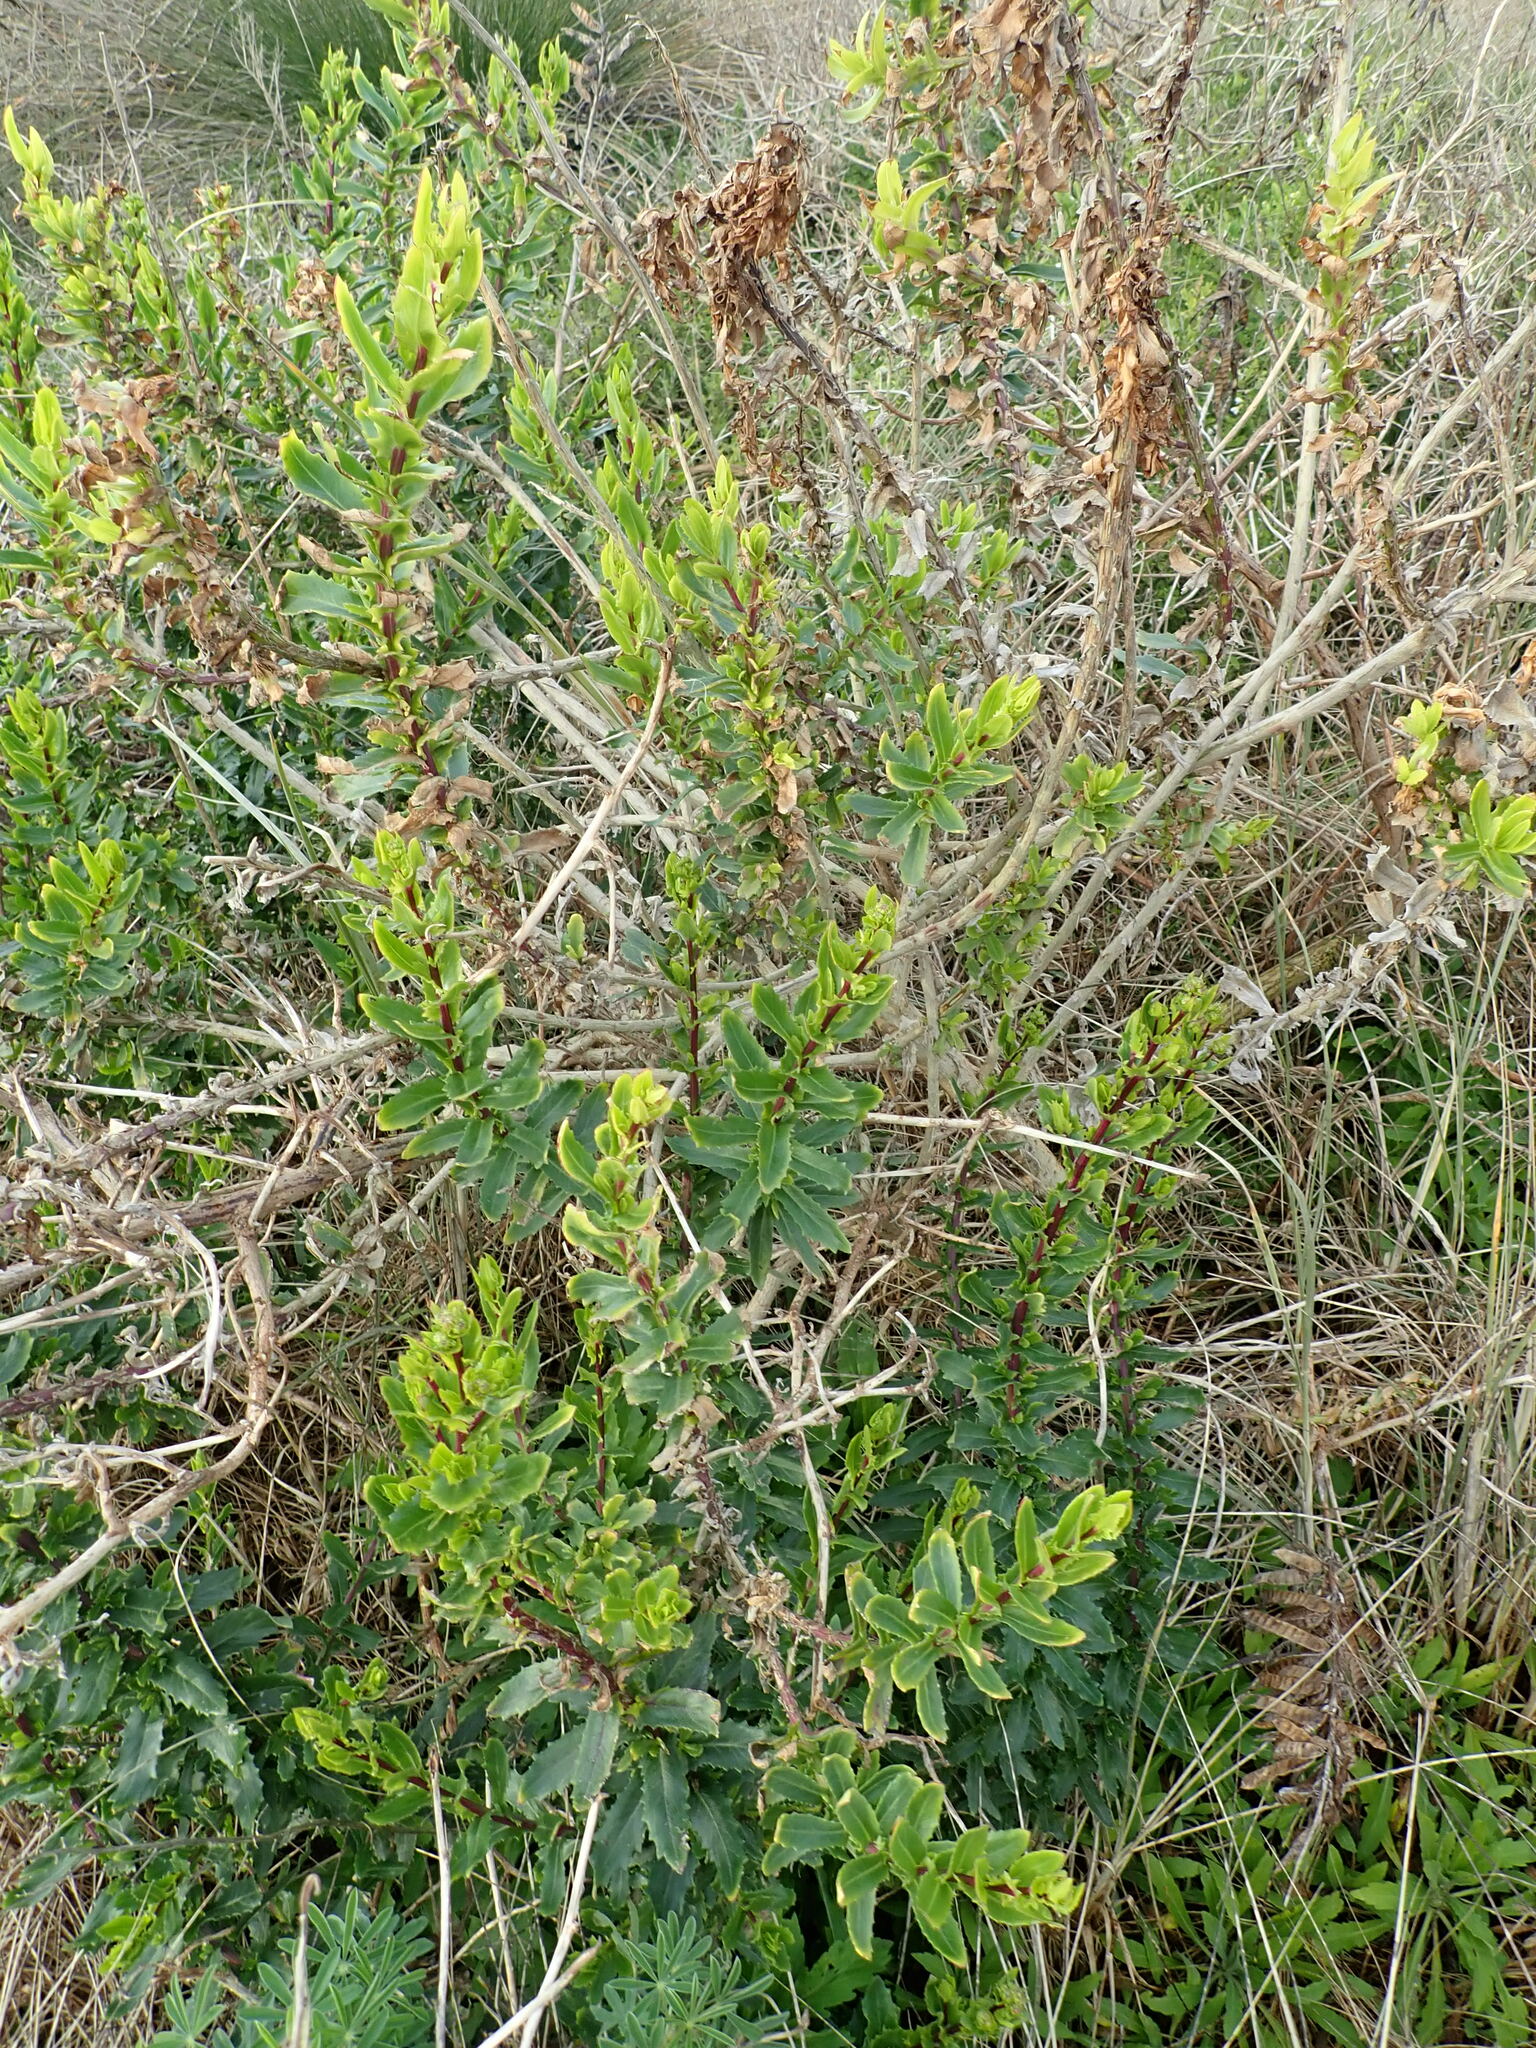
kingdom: Plantae
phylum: Tracheophyta
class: Magnoliopsida
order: Asterales
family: Asteraceae
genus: Senecio
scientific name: Senecio glastifolius
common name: Woad-leaved ragwort
